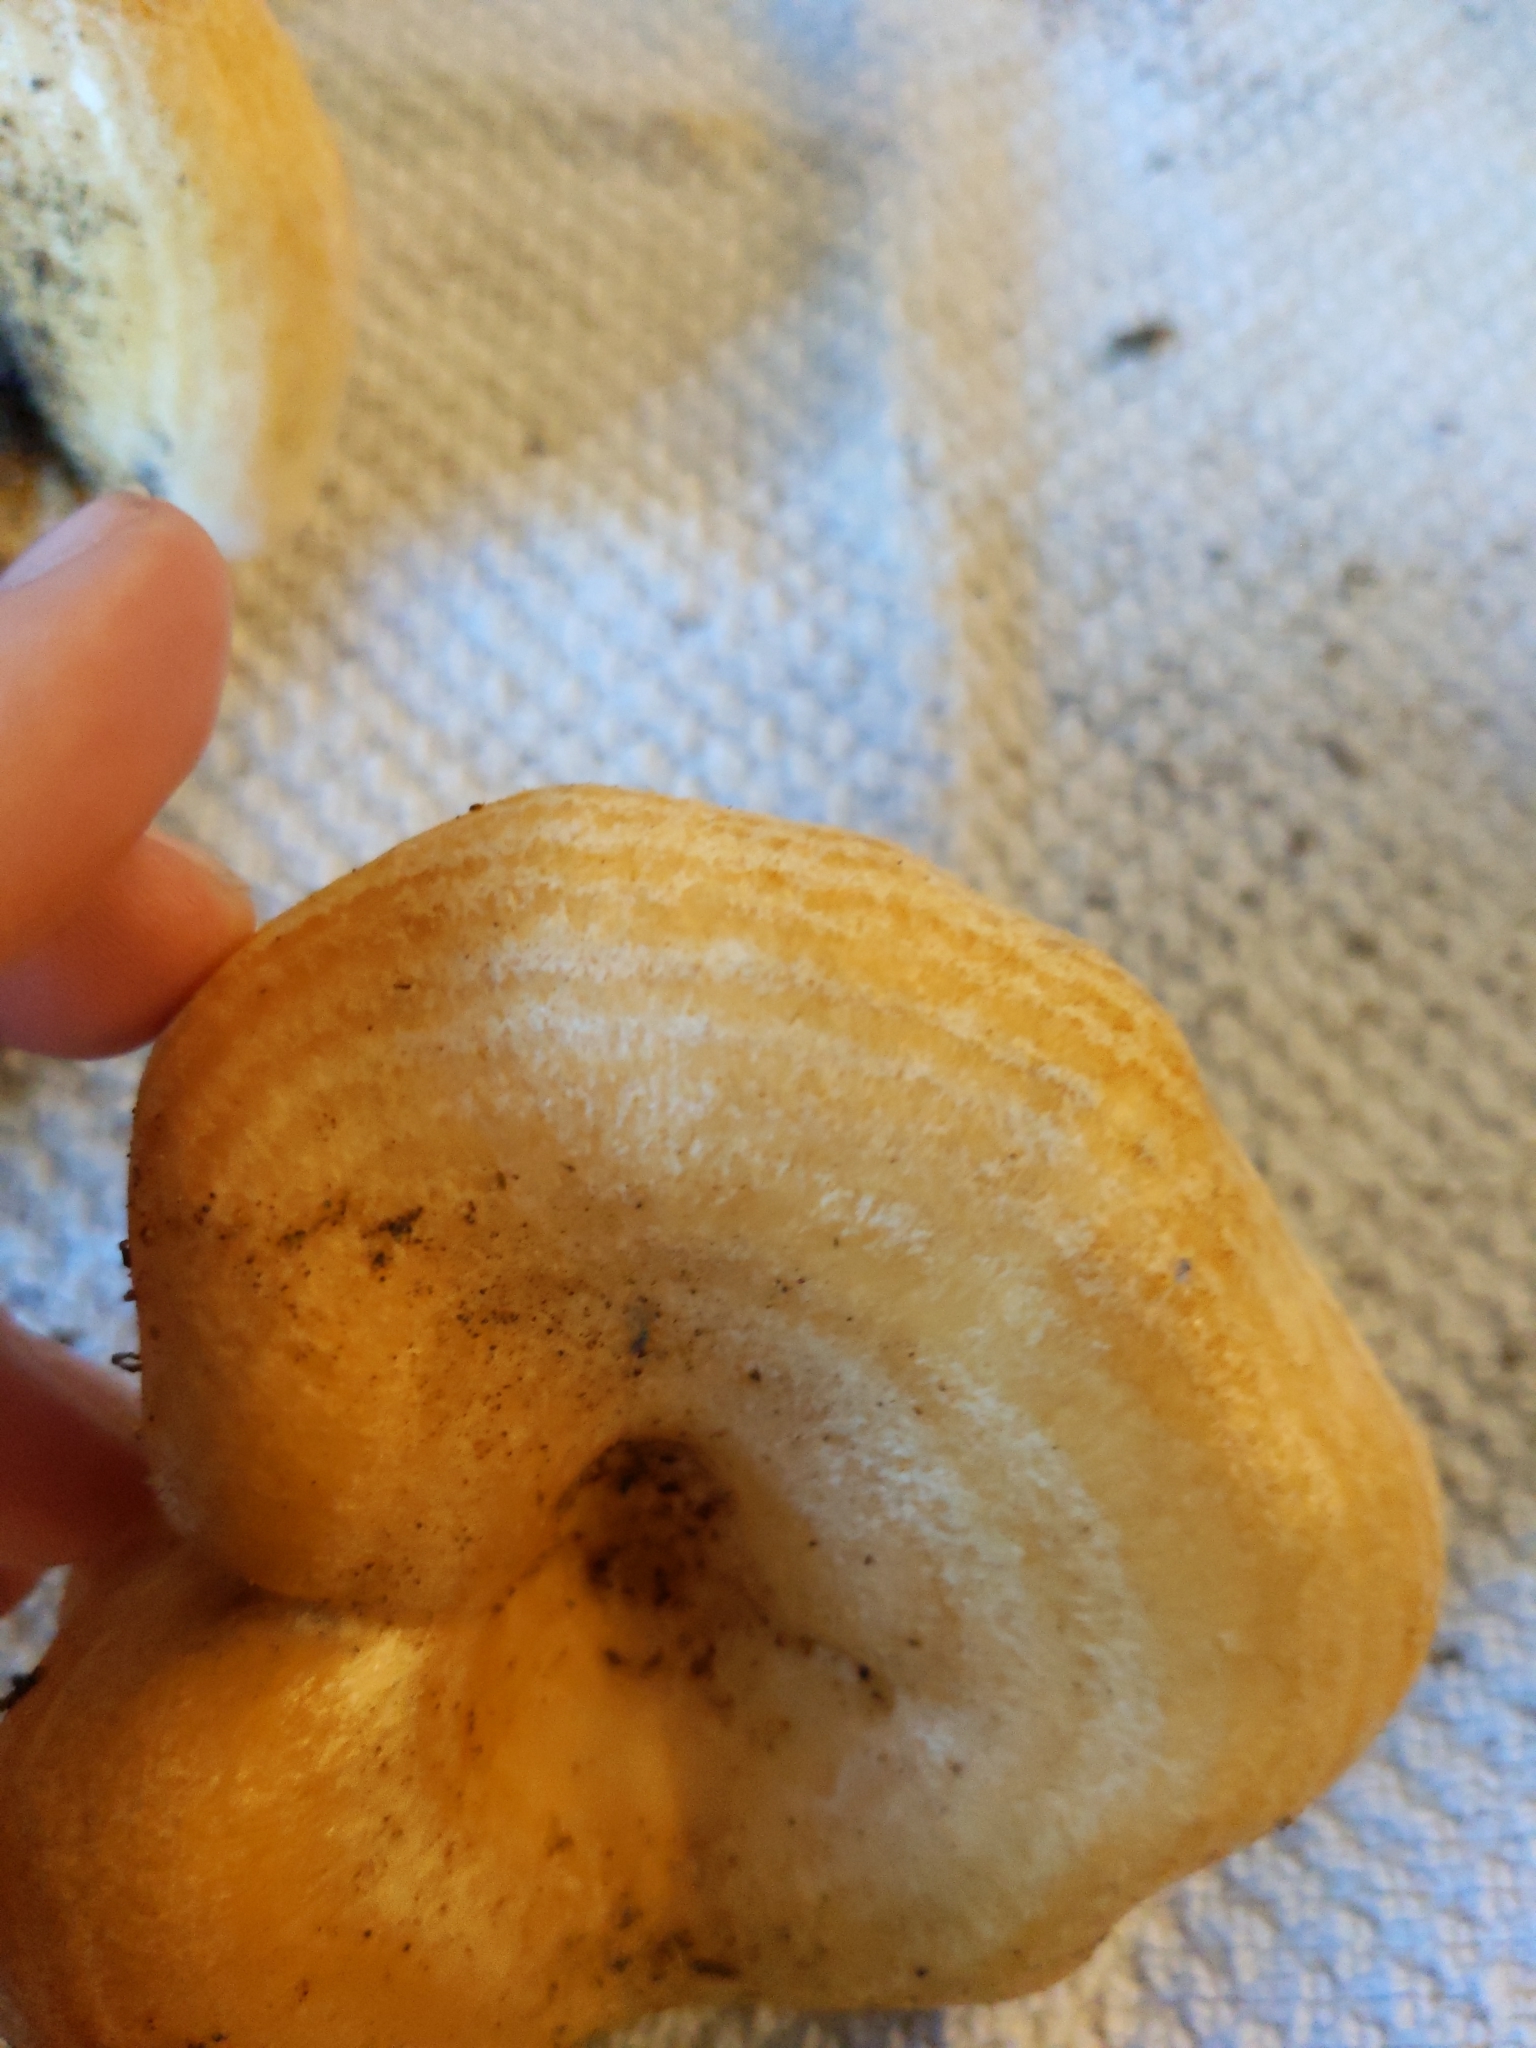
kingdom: Fungi
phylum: Basidiomycota
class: Agaricomycetes
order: Russulales
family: Russulaceae
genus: Lactarius
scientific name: Lactarius alnicola
